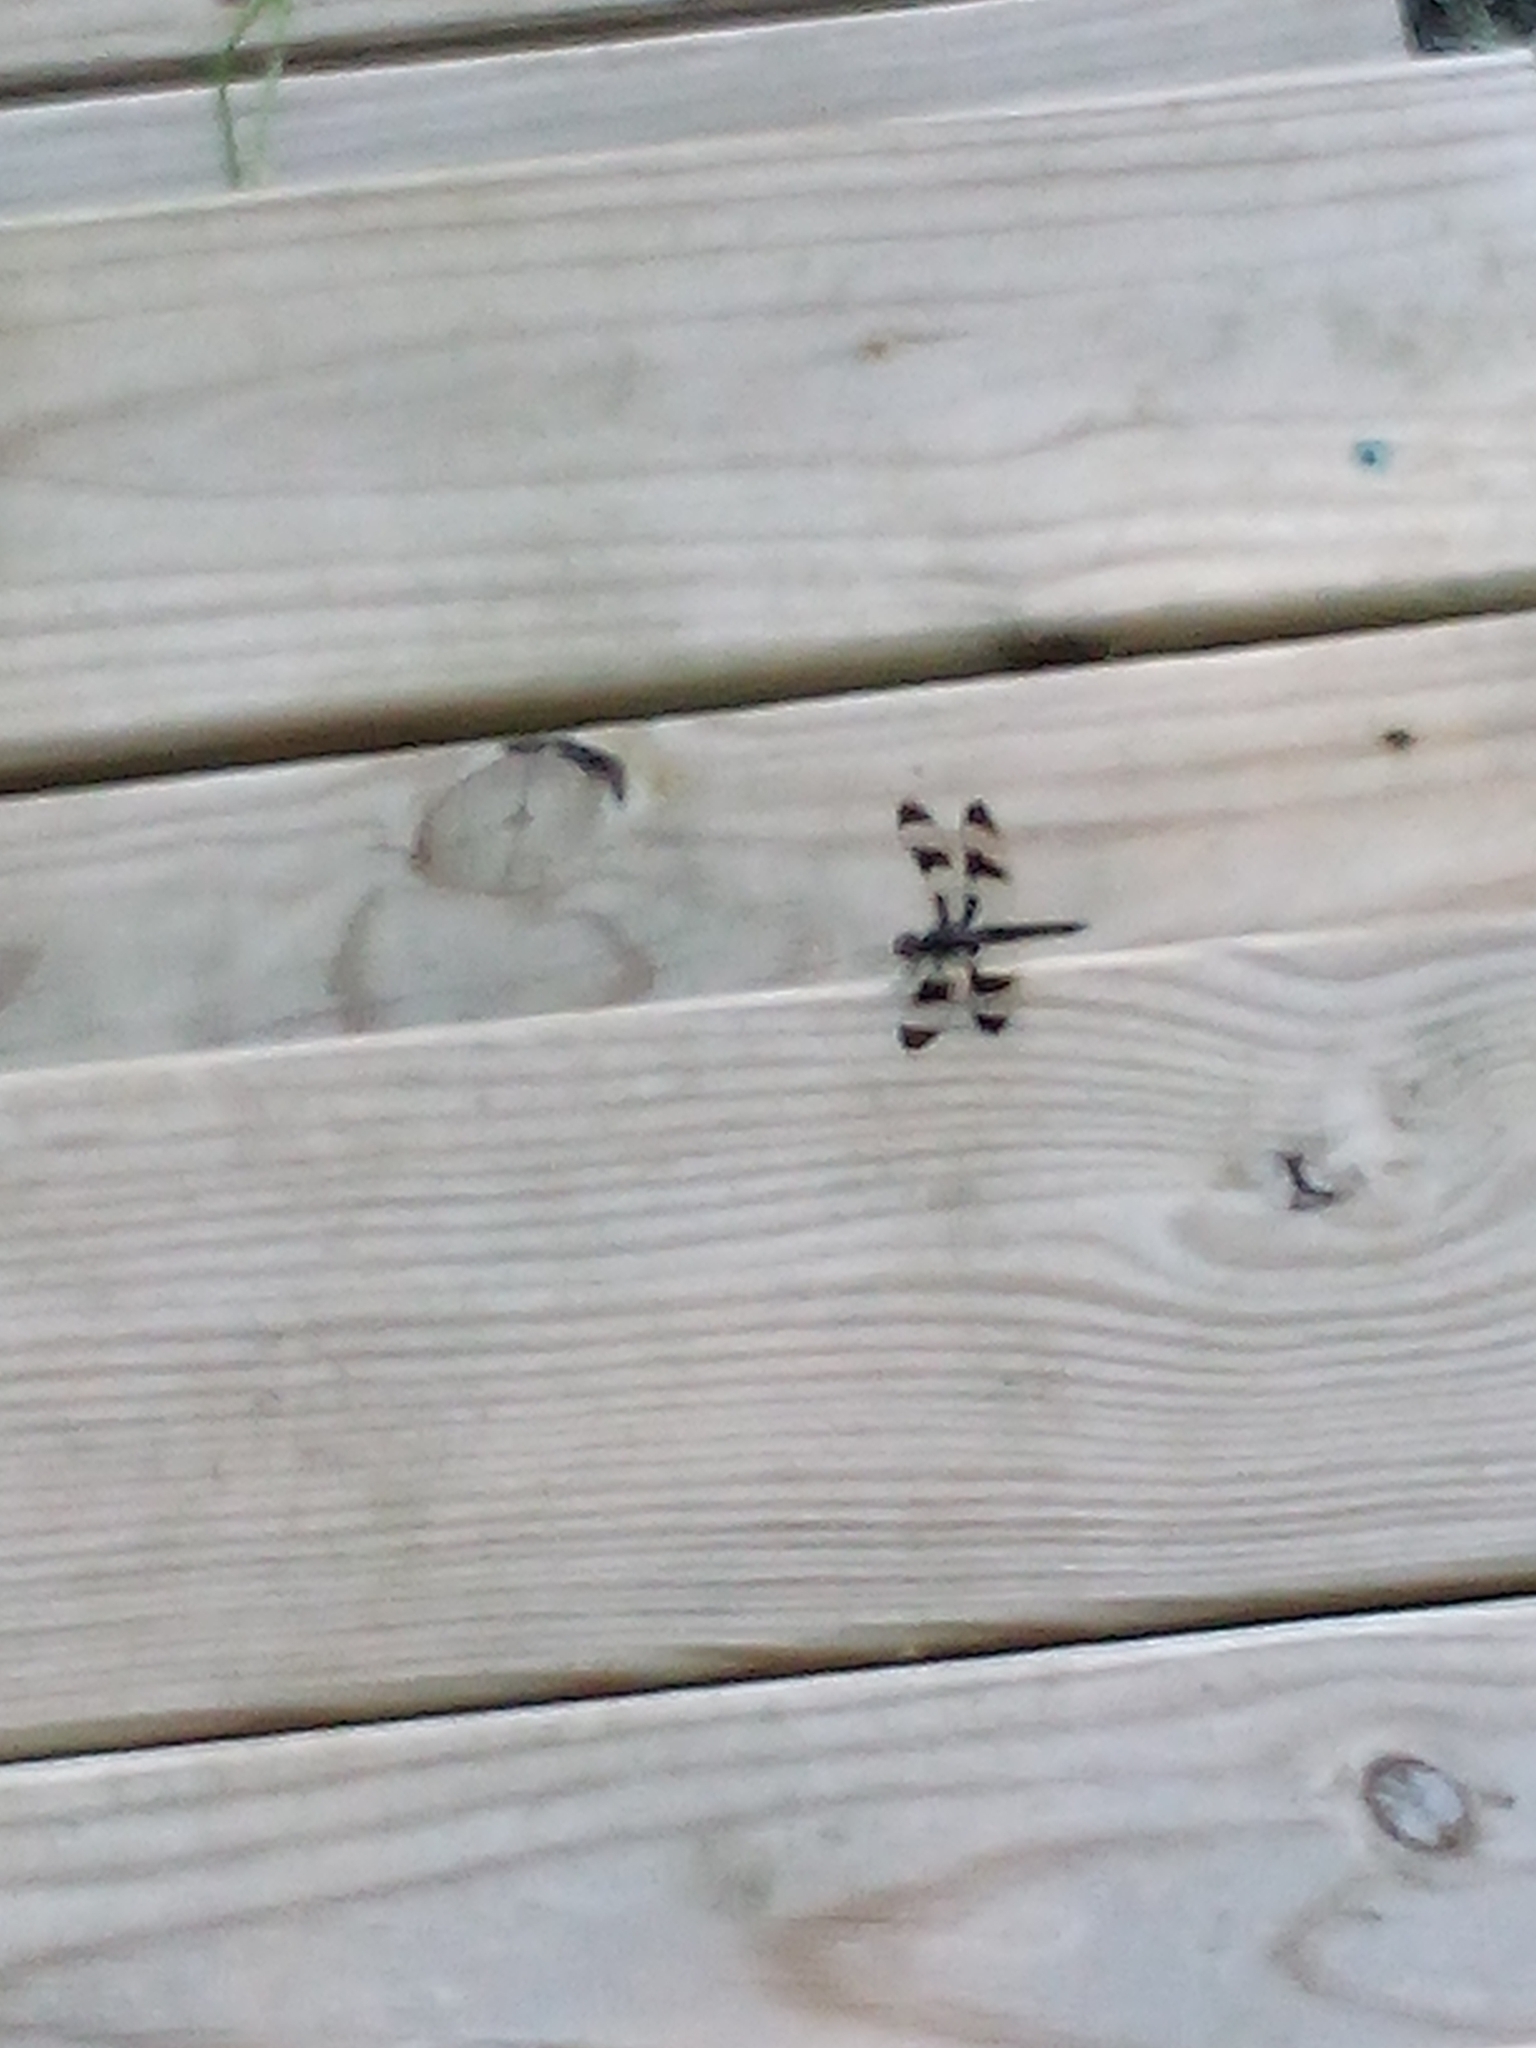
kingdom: Animalia
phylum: Arthropoda
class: Insecta
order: Odonata
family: Libellulidae
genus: Plathemis
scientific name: Plathemis lydia
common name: Common whitetail
